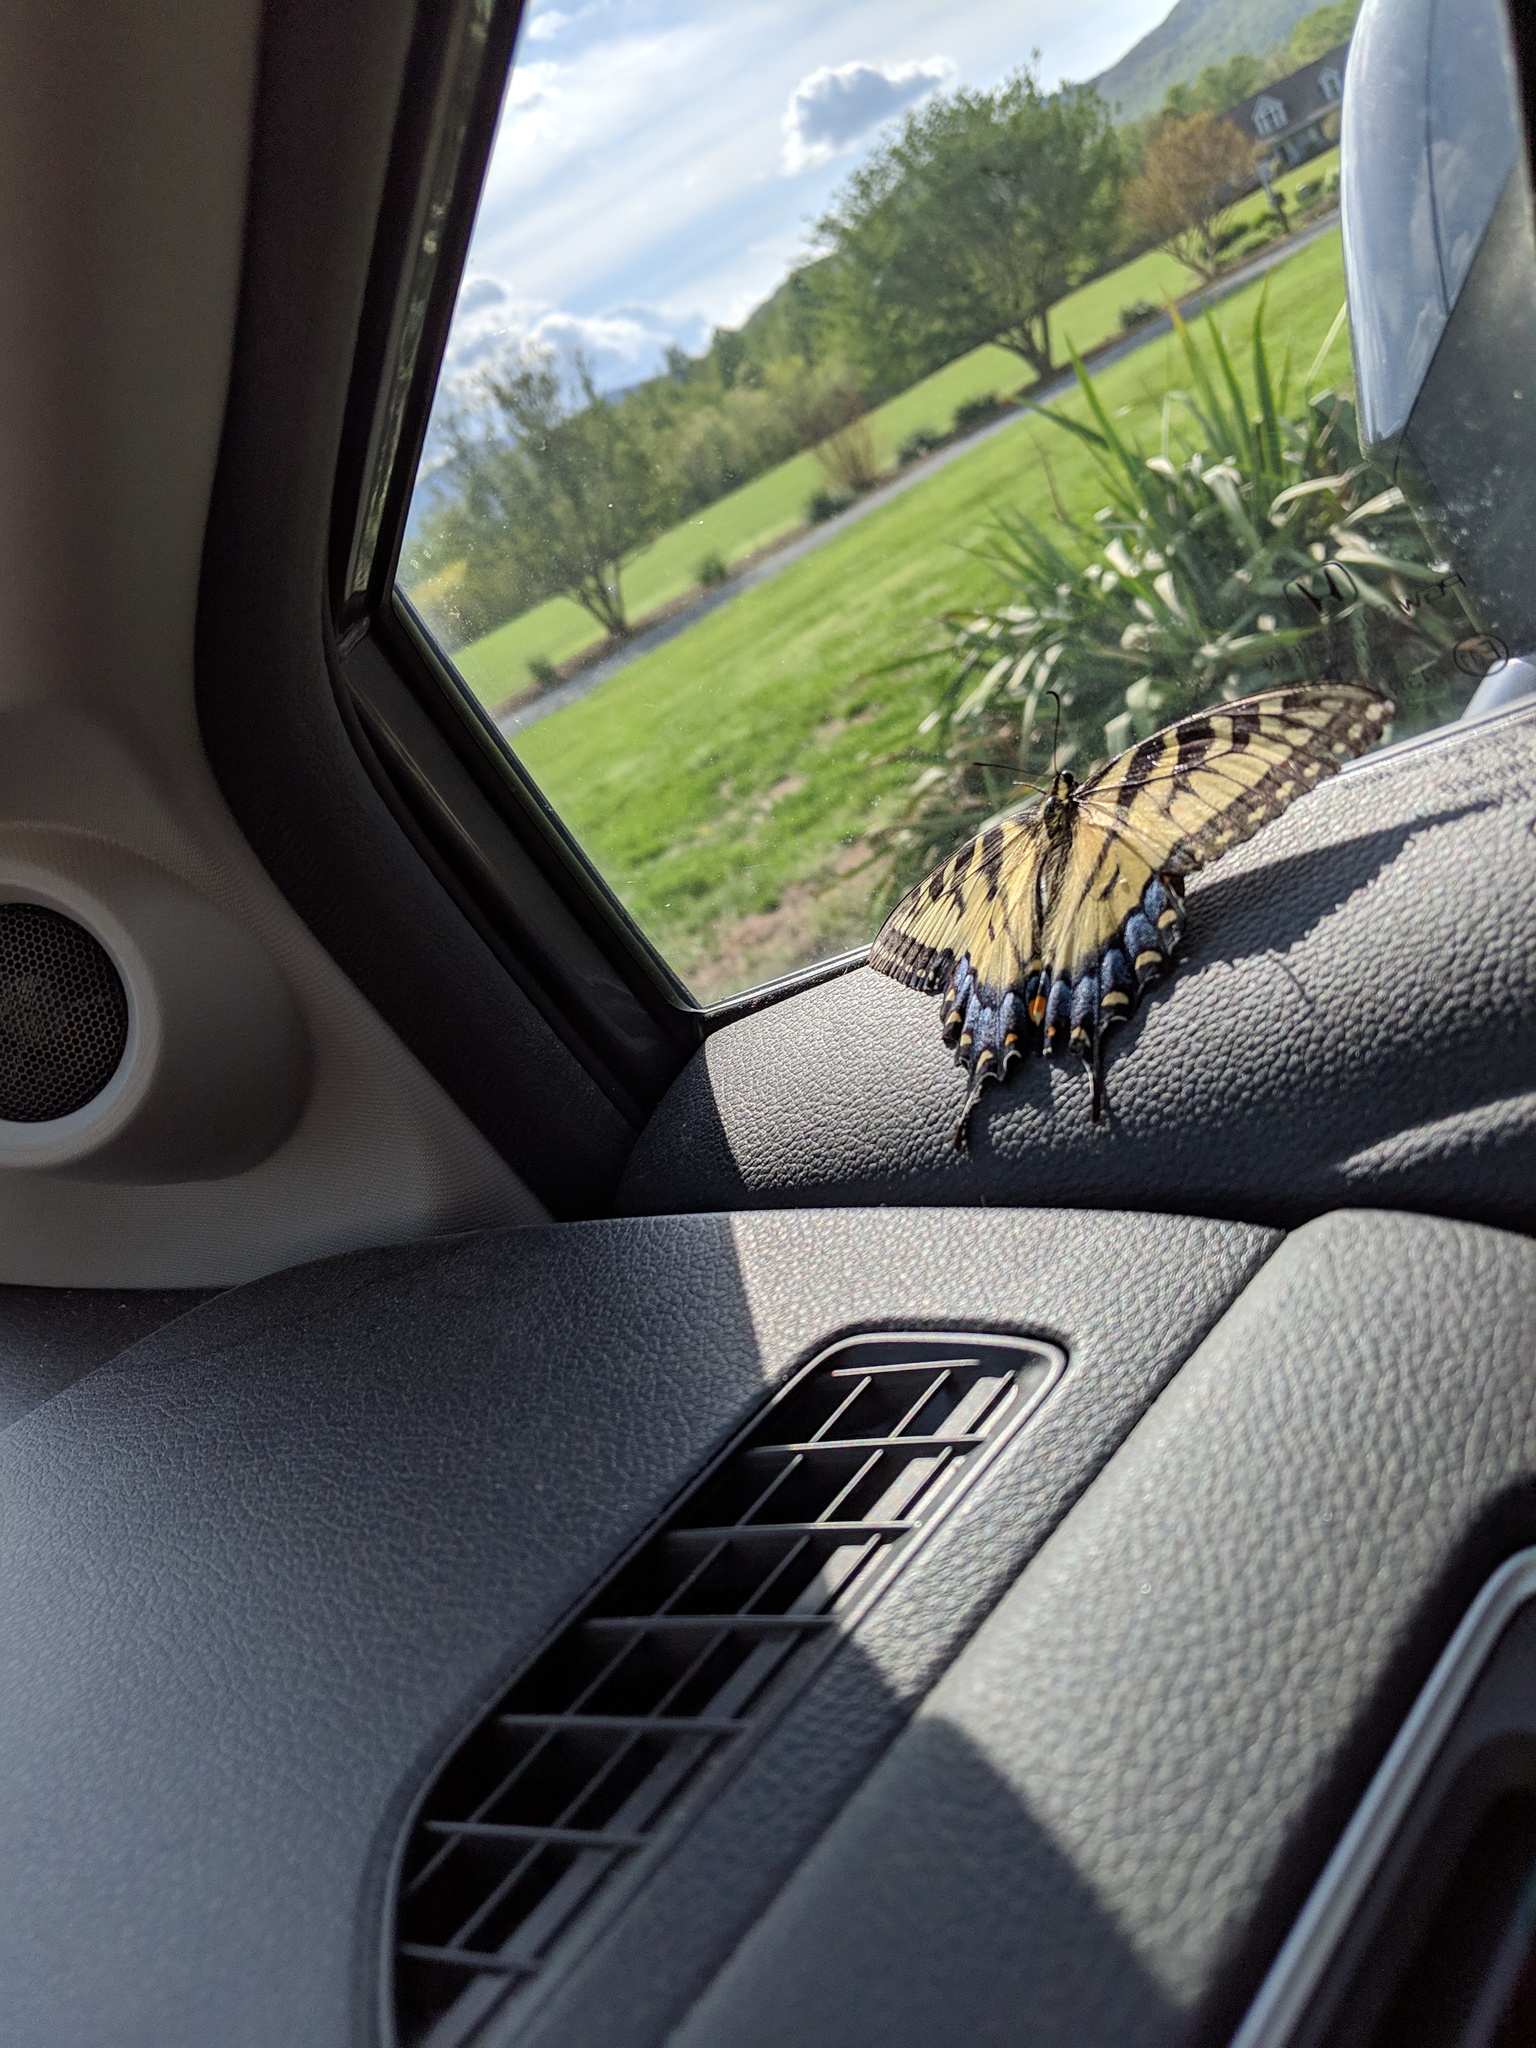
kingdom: Animalia
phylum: Arthropoda
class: Insecta
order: Lepidoptera
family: Papilionidae
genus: Papilio
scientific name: Papilio glaucus
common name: Tiger swallowtail
